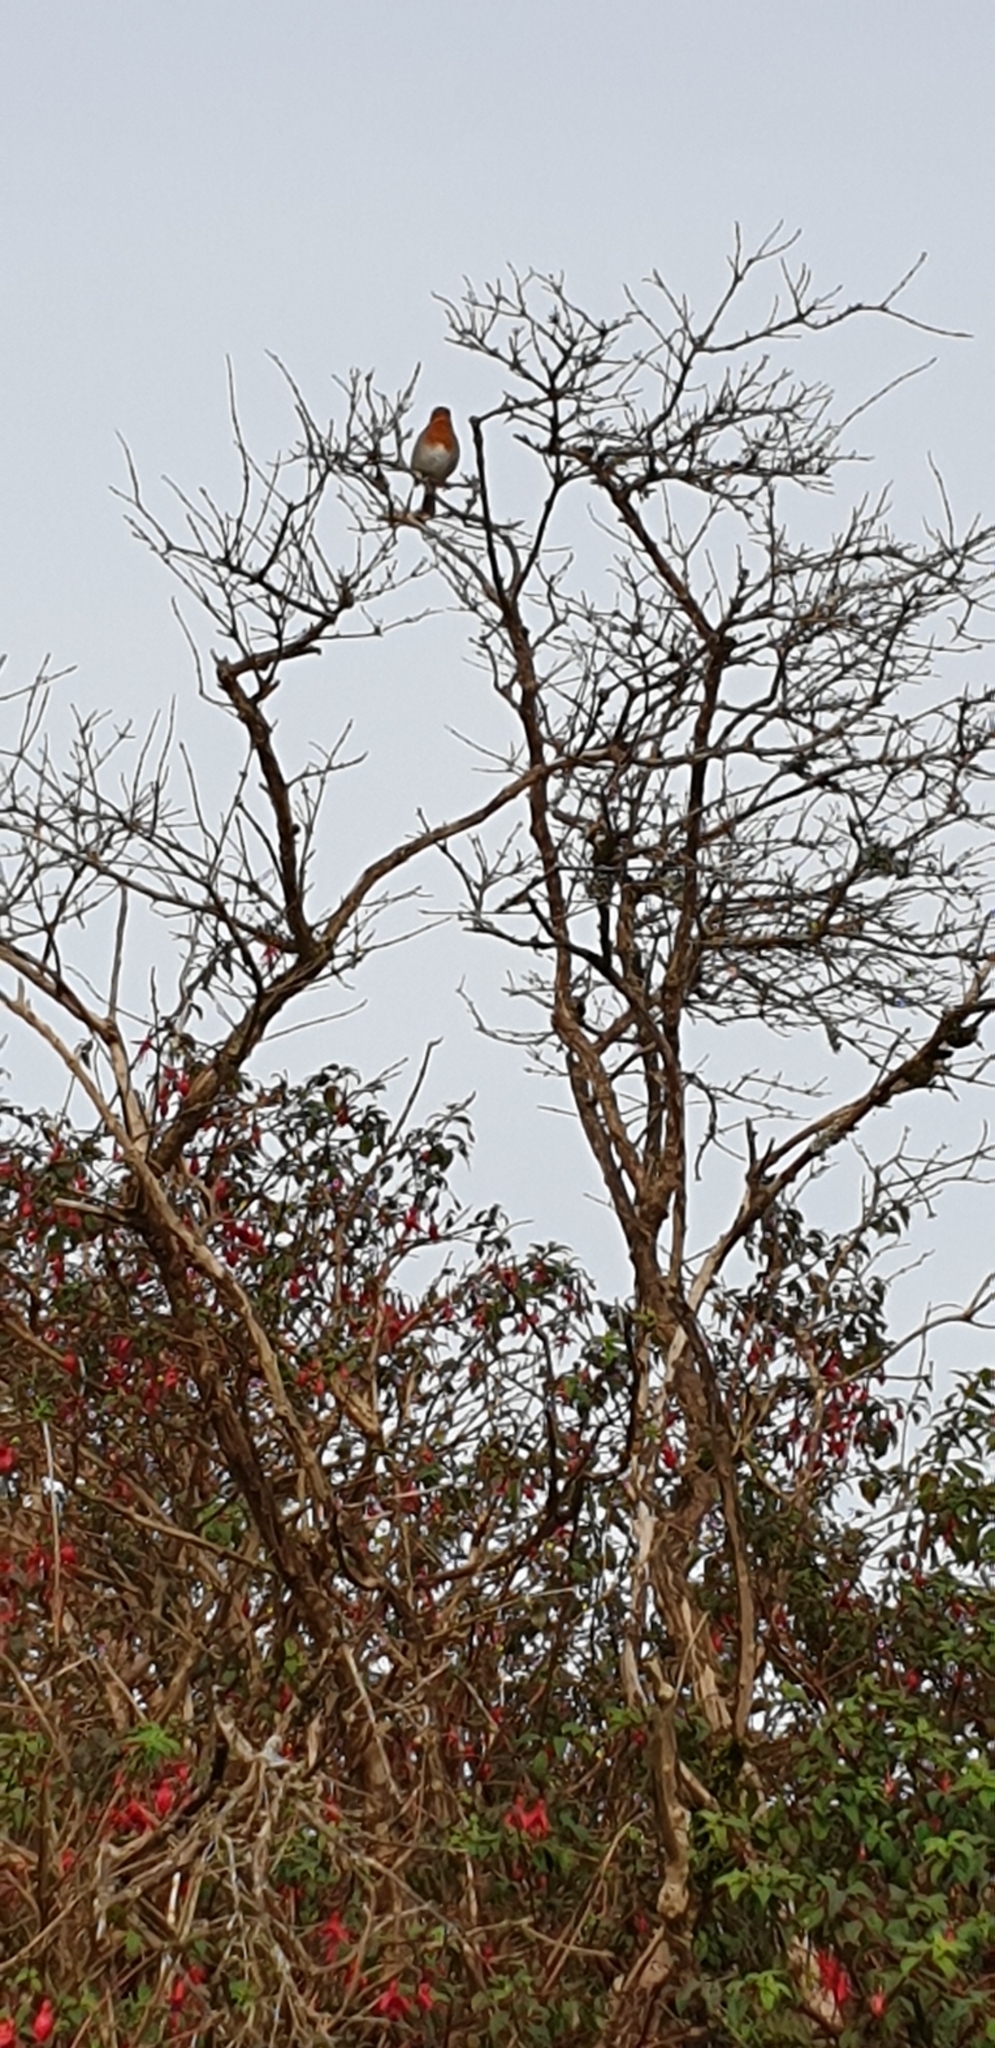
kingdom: Animalia
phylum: Chordata
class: Aves
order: Passeriformes
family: Muscicapidae
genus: Erithacus
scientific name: Erithacus rubecula
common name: European robin
